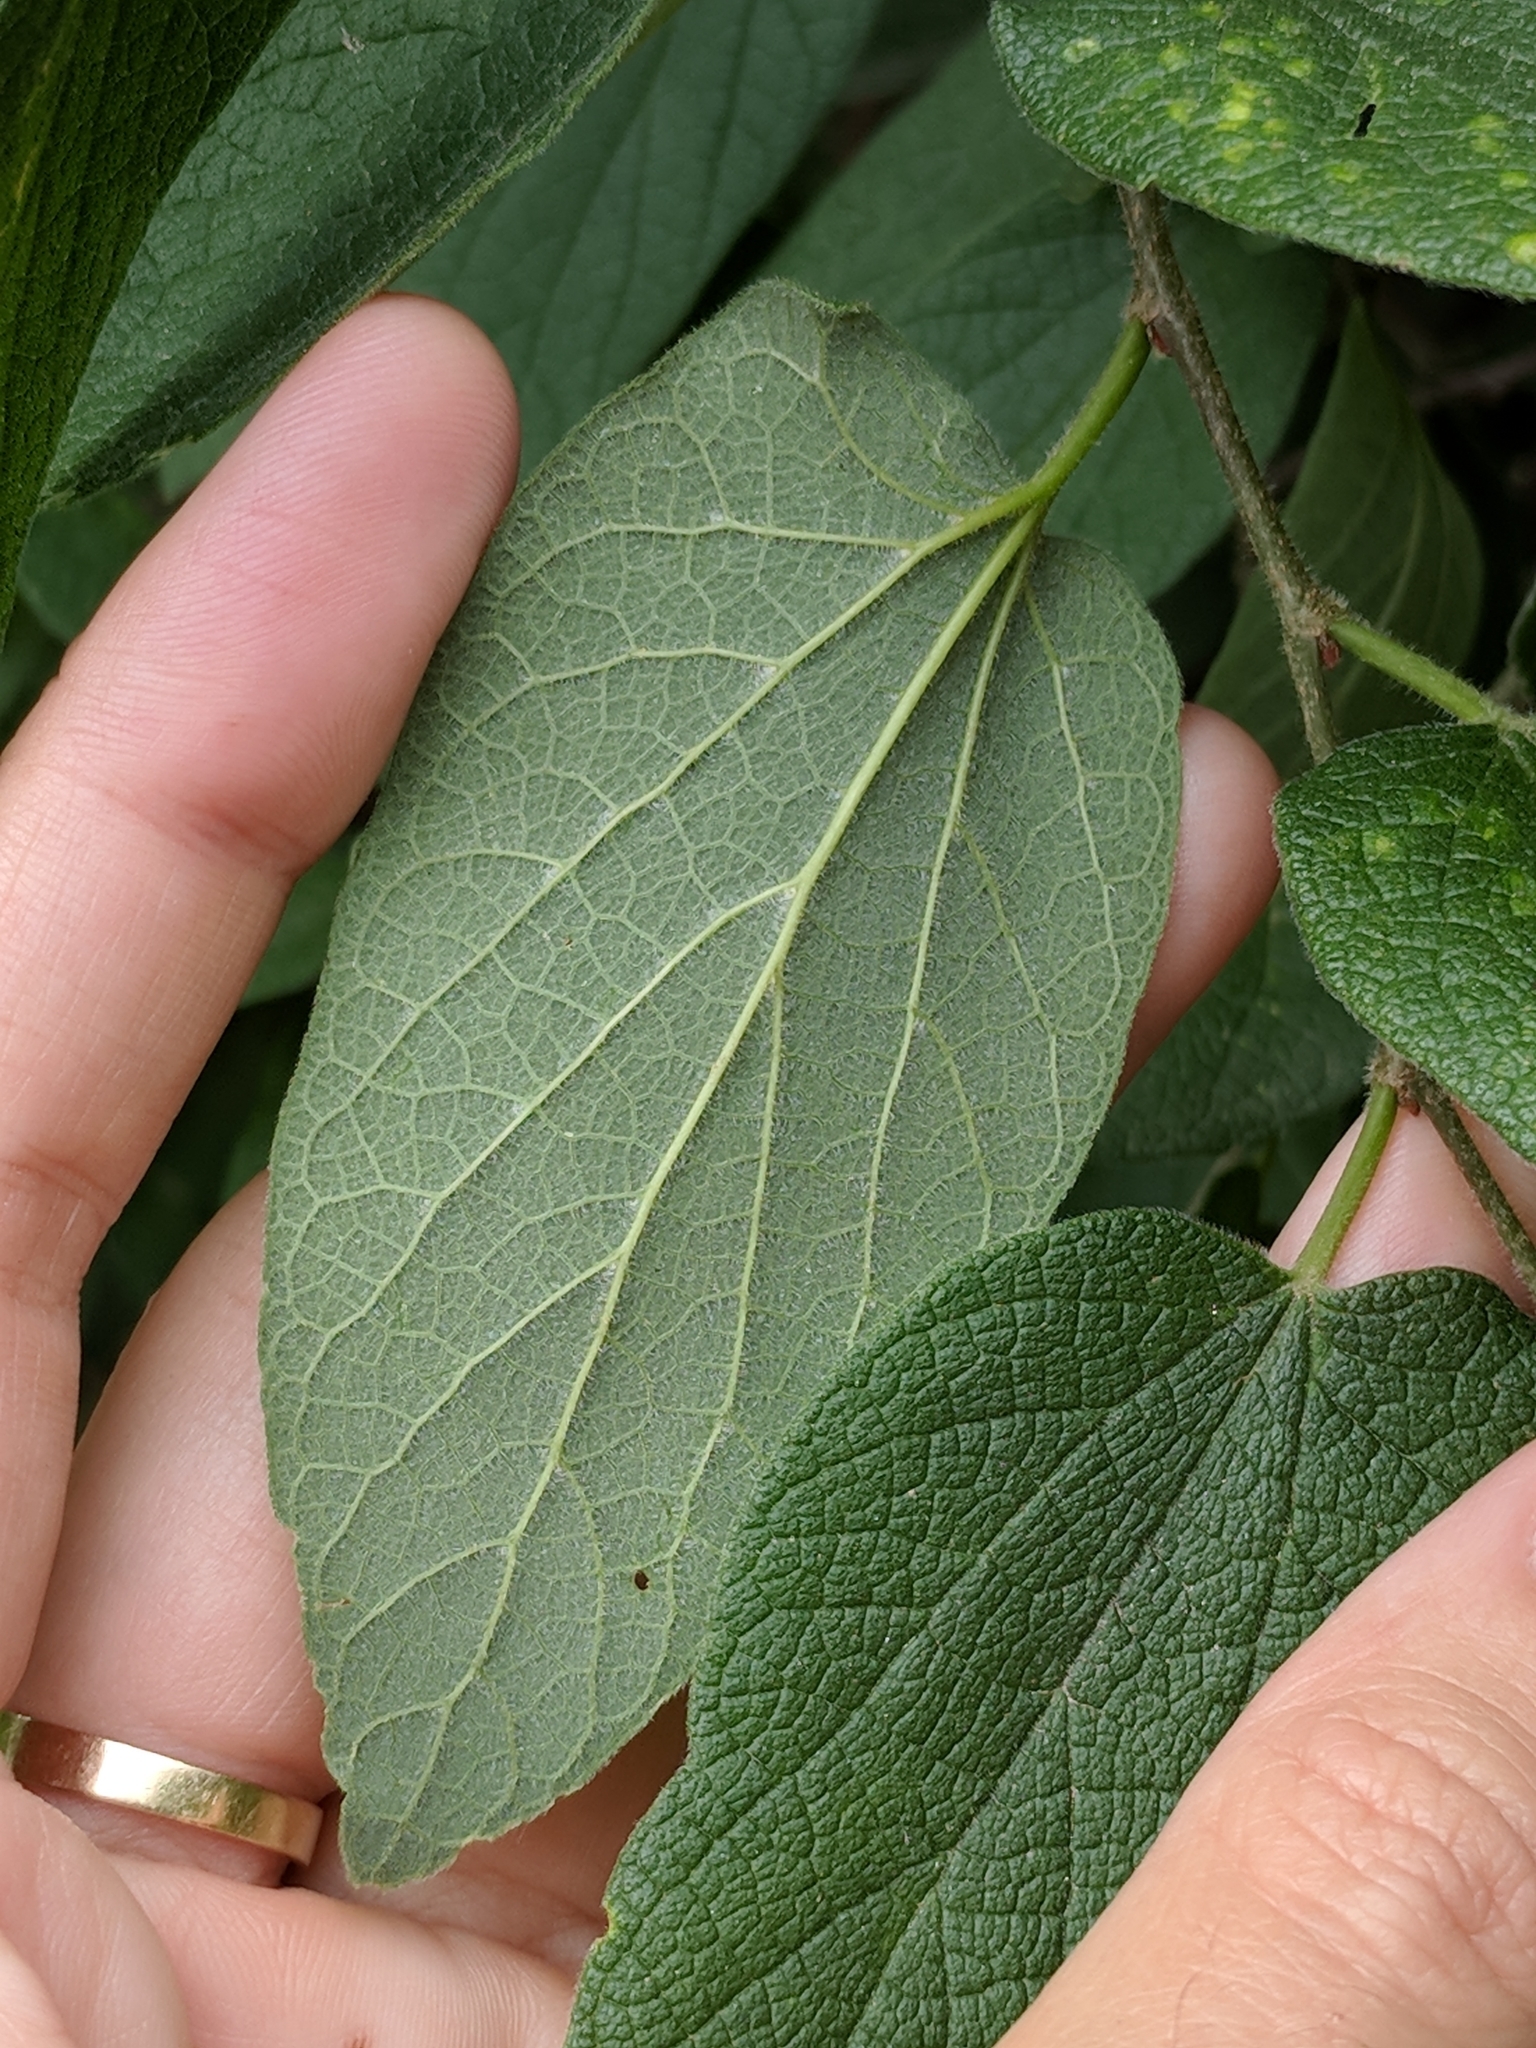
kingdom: Plantae
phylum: Tracheophyta
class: Magnoliopsida
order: Rosales
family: Cannabaceae
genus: Celtis
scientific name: Celtis reticulata
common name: Netleaf hackberry
